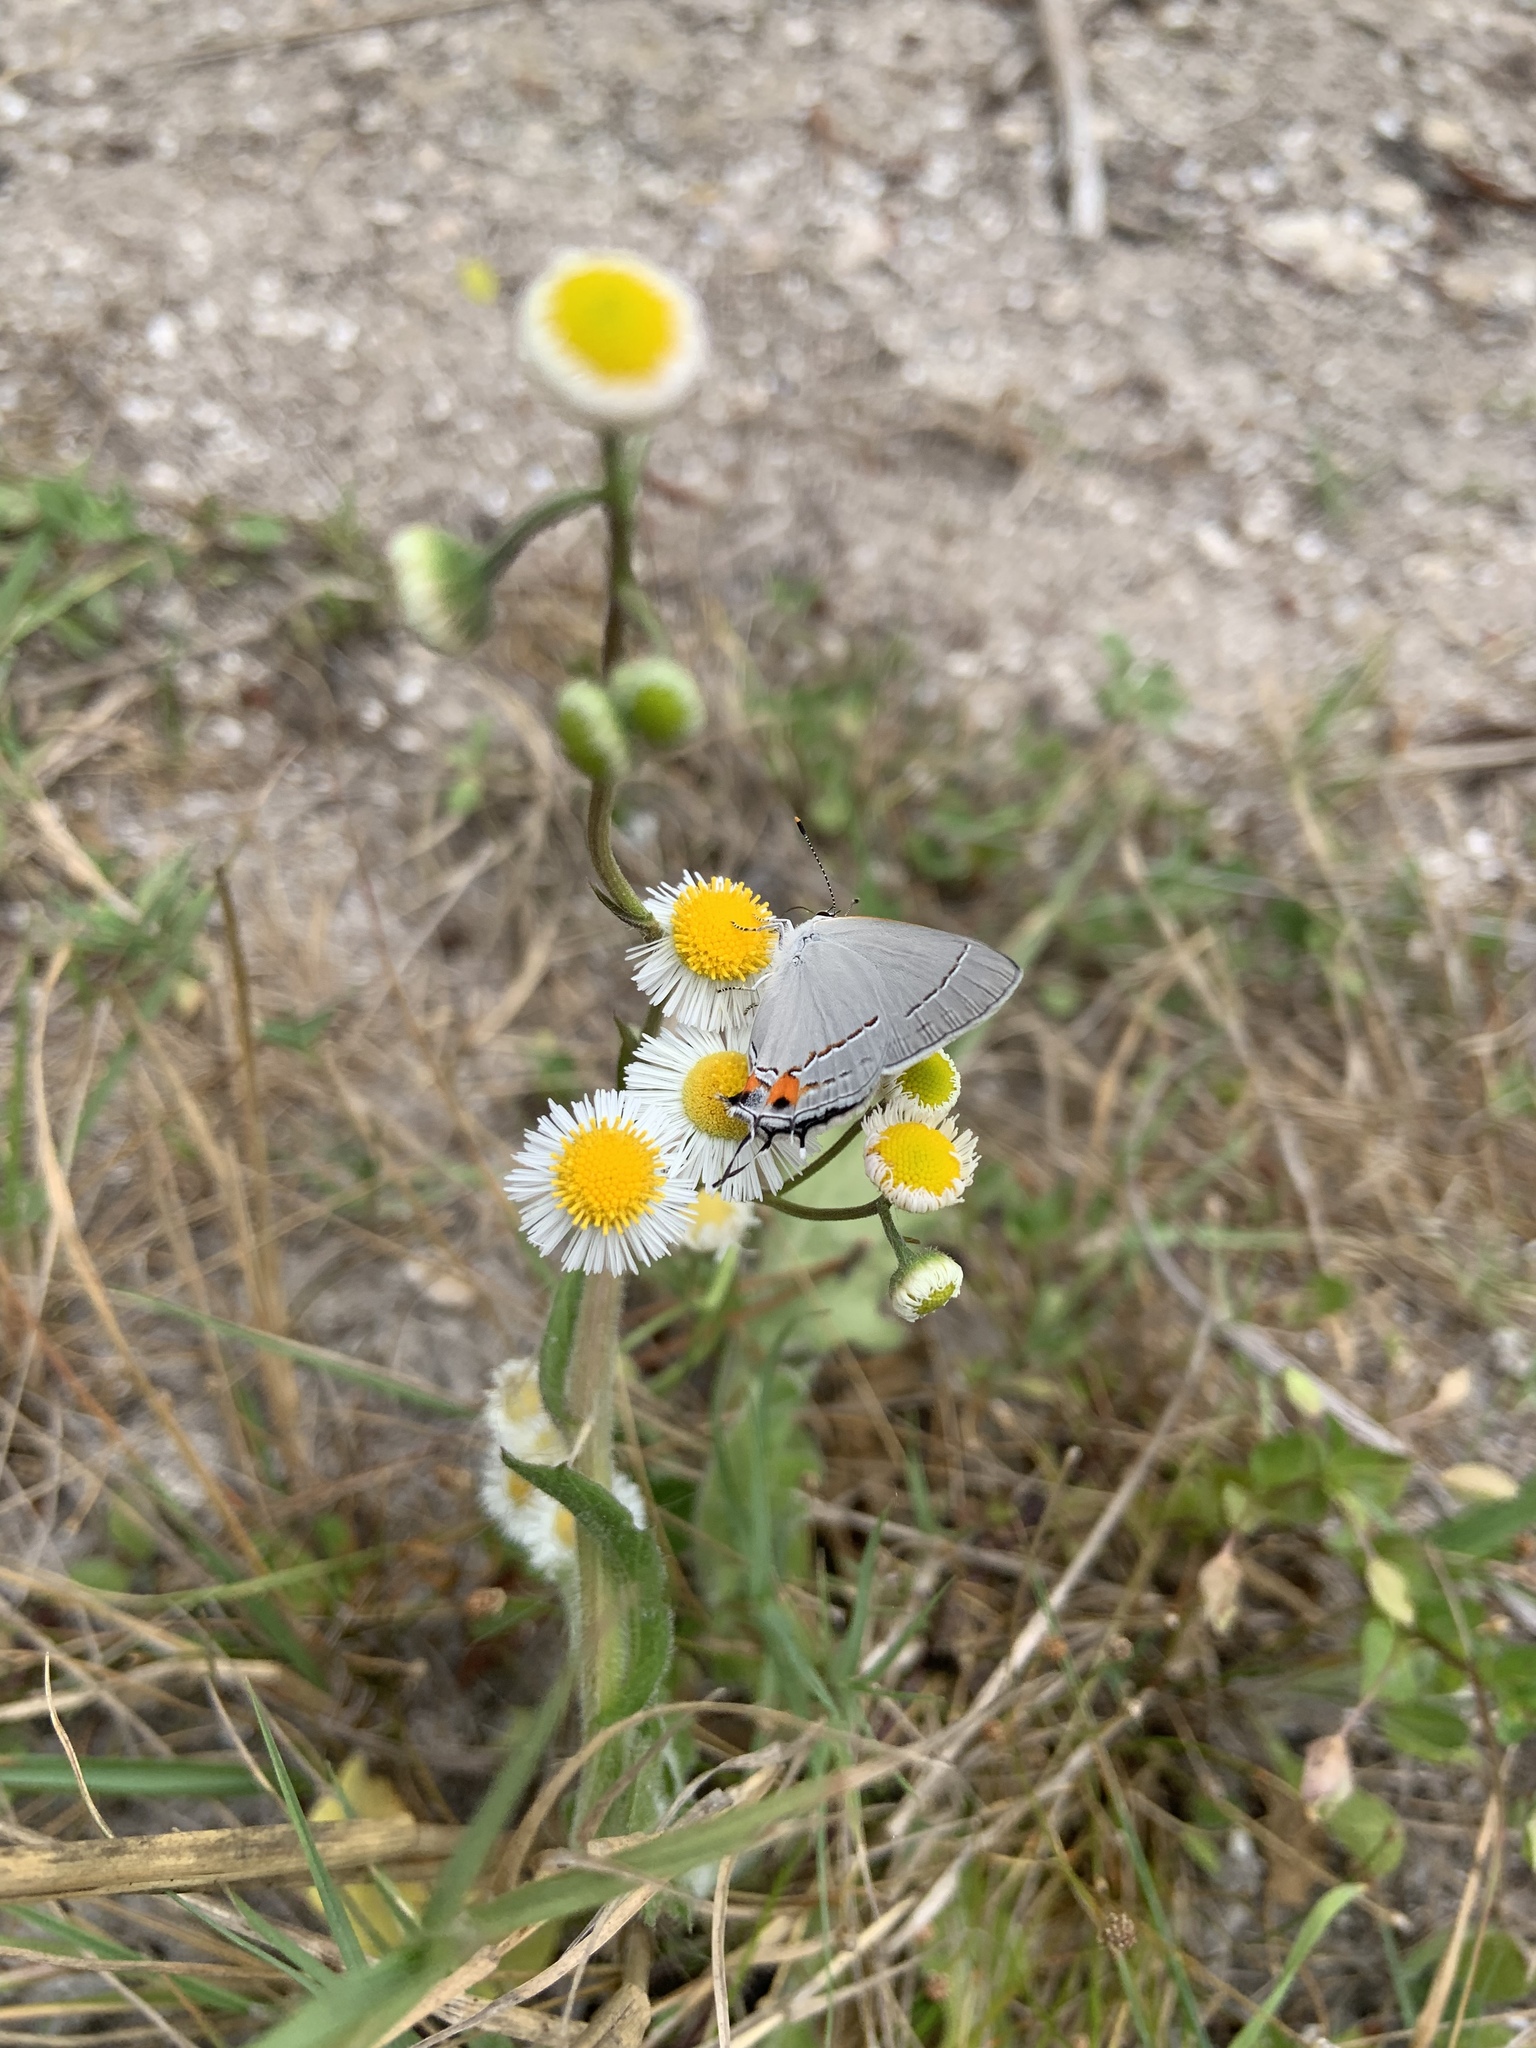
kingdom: Animalia
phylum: Arthropoda
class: Insecta
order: Lepidoptera
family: Lycaenidae
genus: Strymon
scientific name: Strymon melinus
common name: Gray hairstreak
